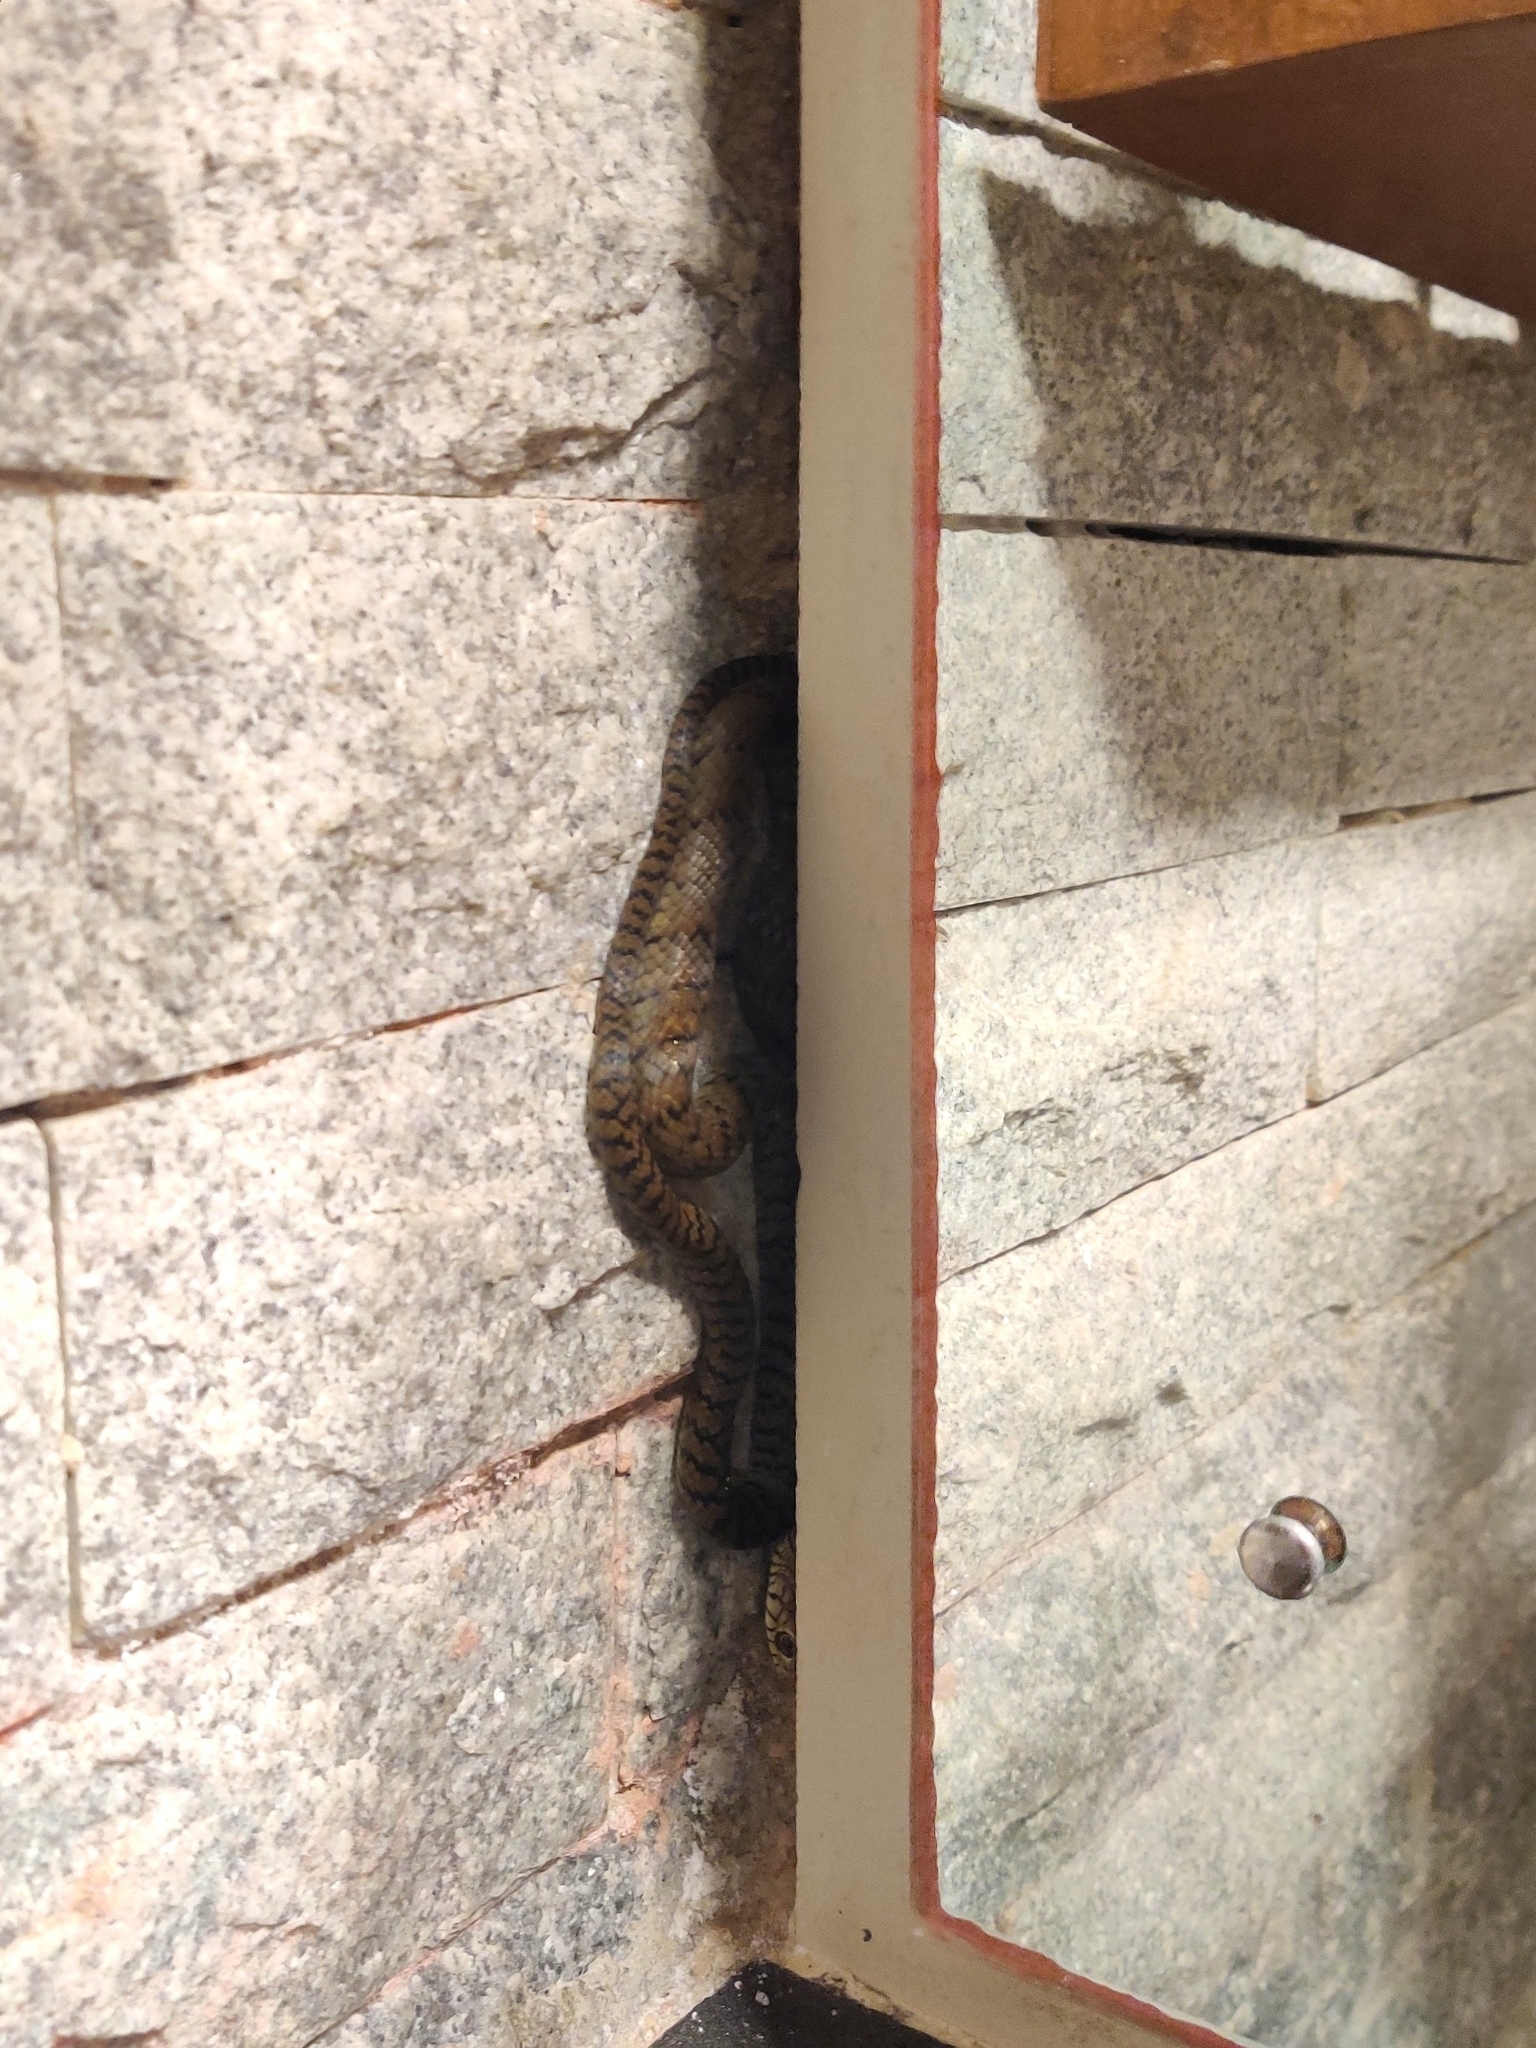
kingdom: Animalia
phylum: Chordata
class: Squamata
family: Colubridae
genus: Ptyas
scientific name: Ptyas mucosa
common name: Oriental ratsnake
